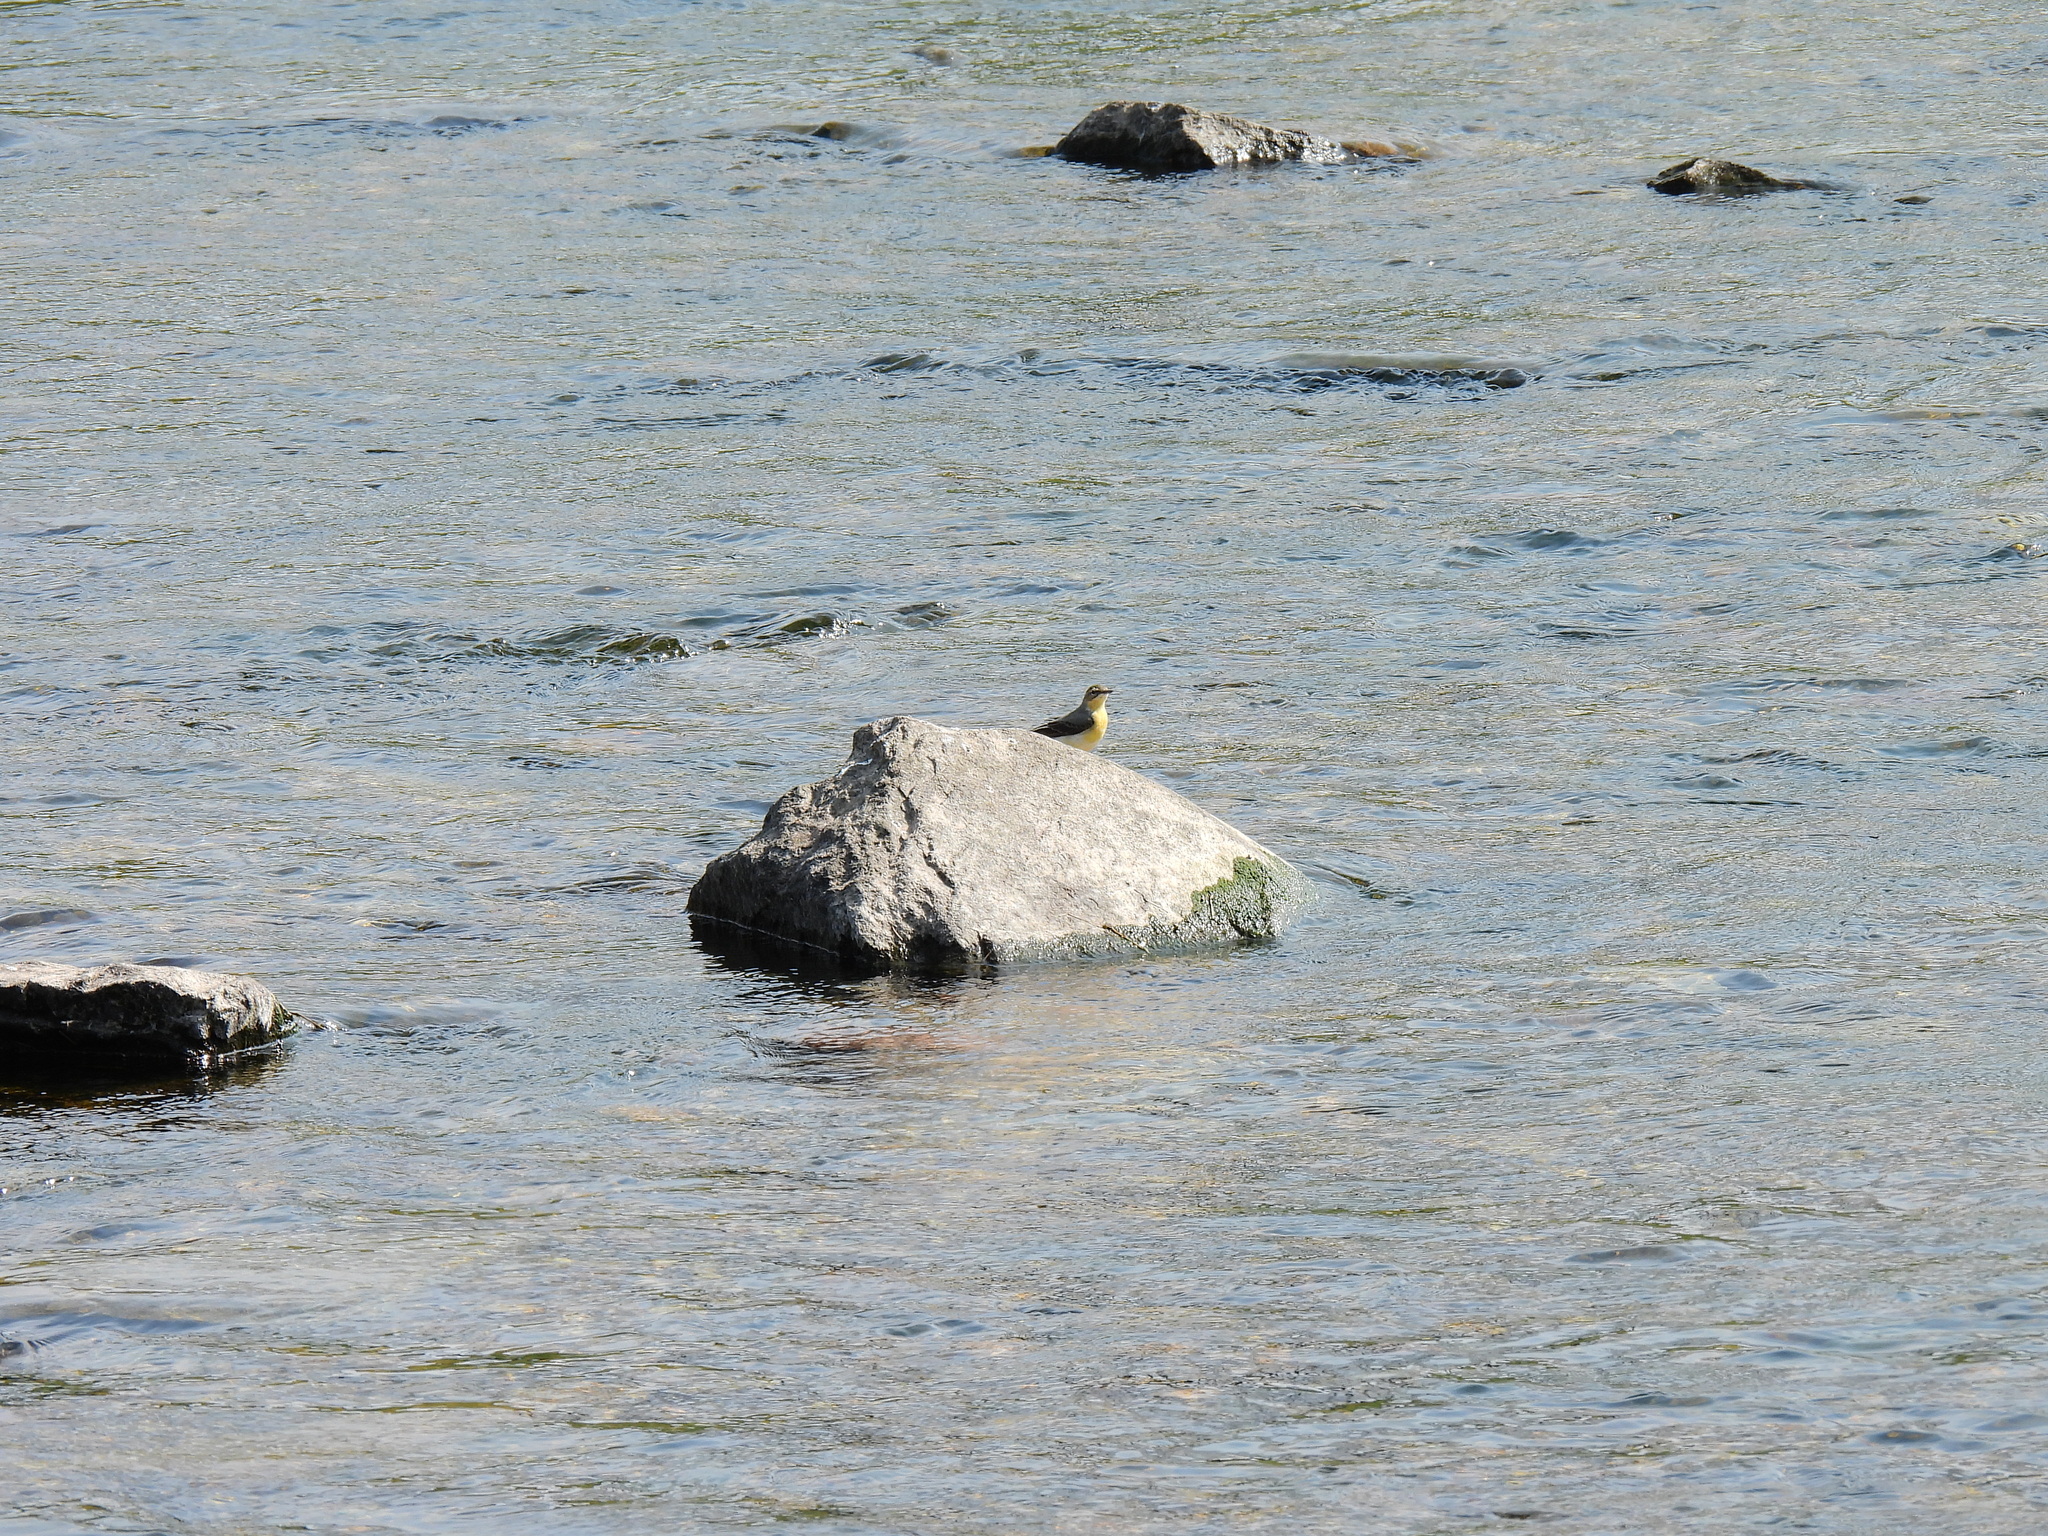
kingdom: Animalia
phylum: Chordata
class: Aves
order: Passeriformes
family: Motacillidae
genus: Motacilla
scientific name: Motacilla cinerea
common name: Grey wagtail
